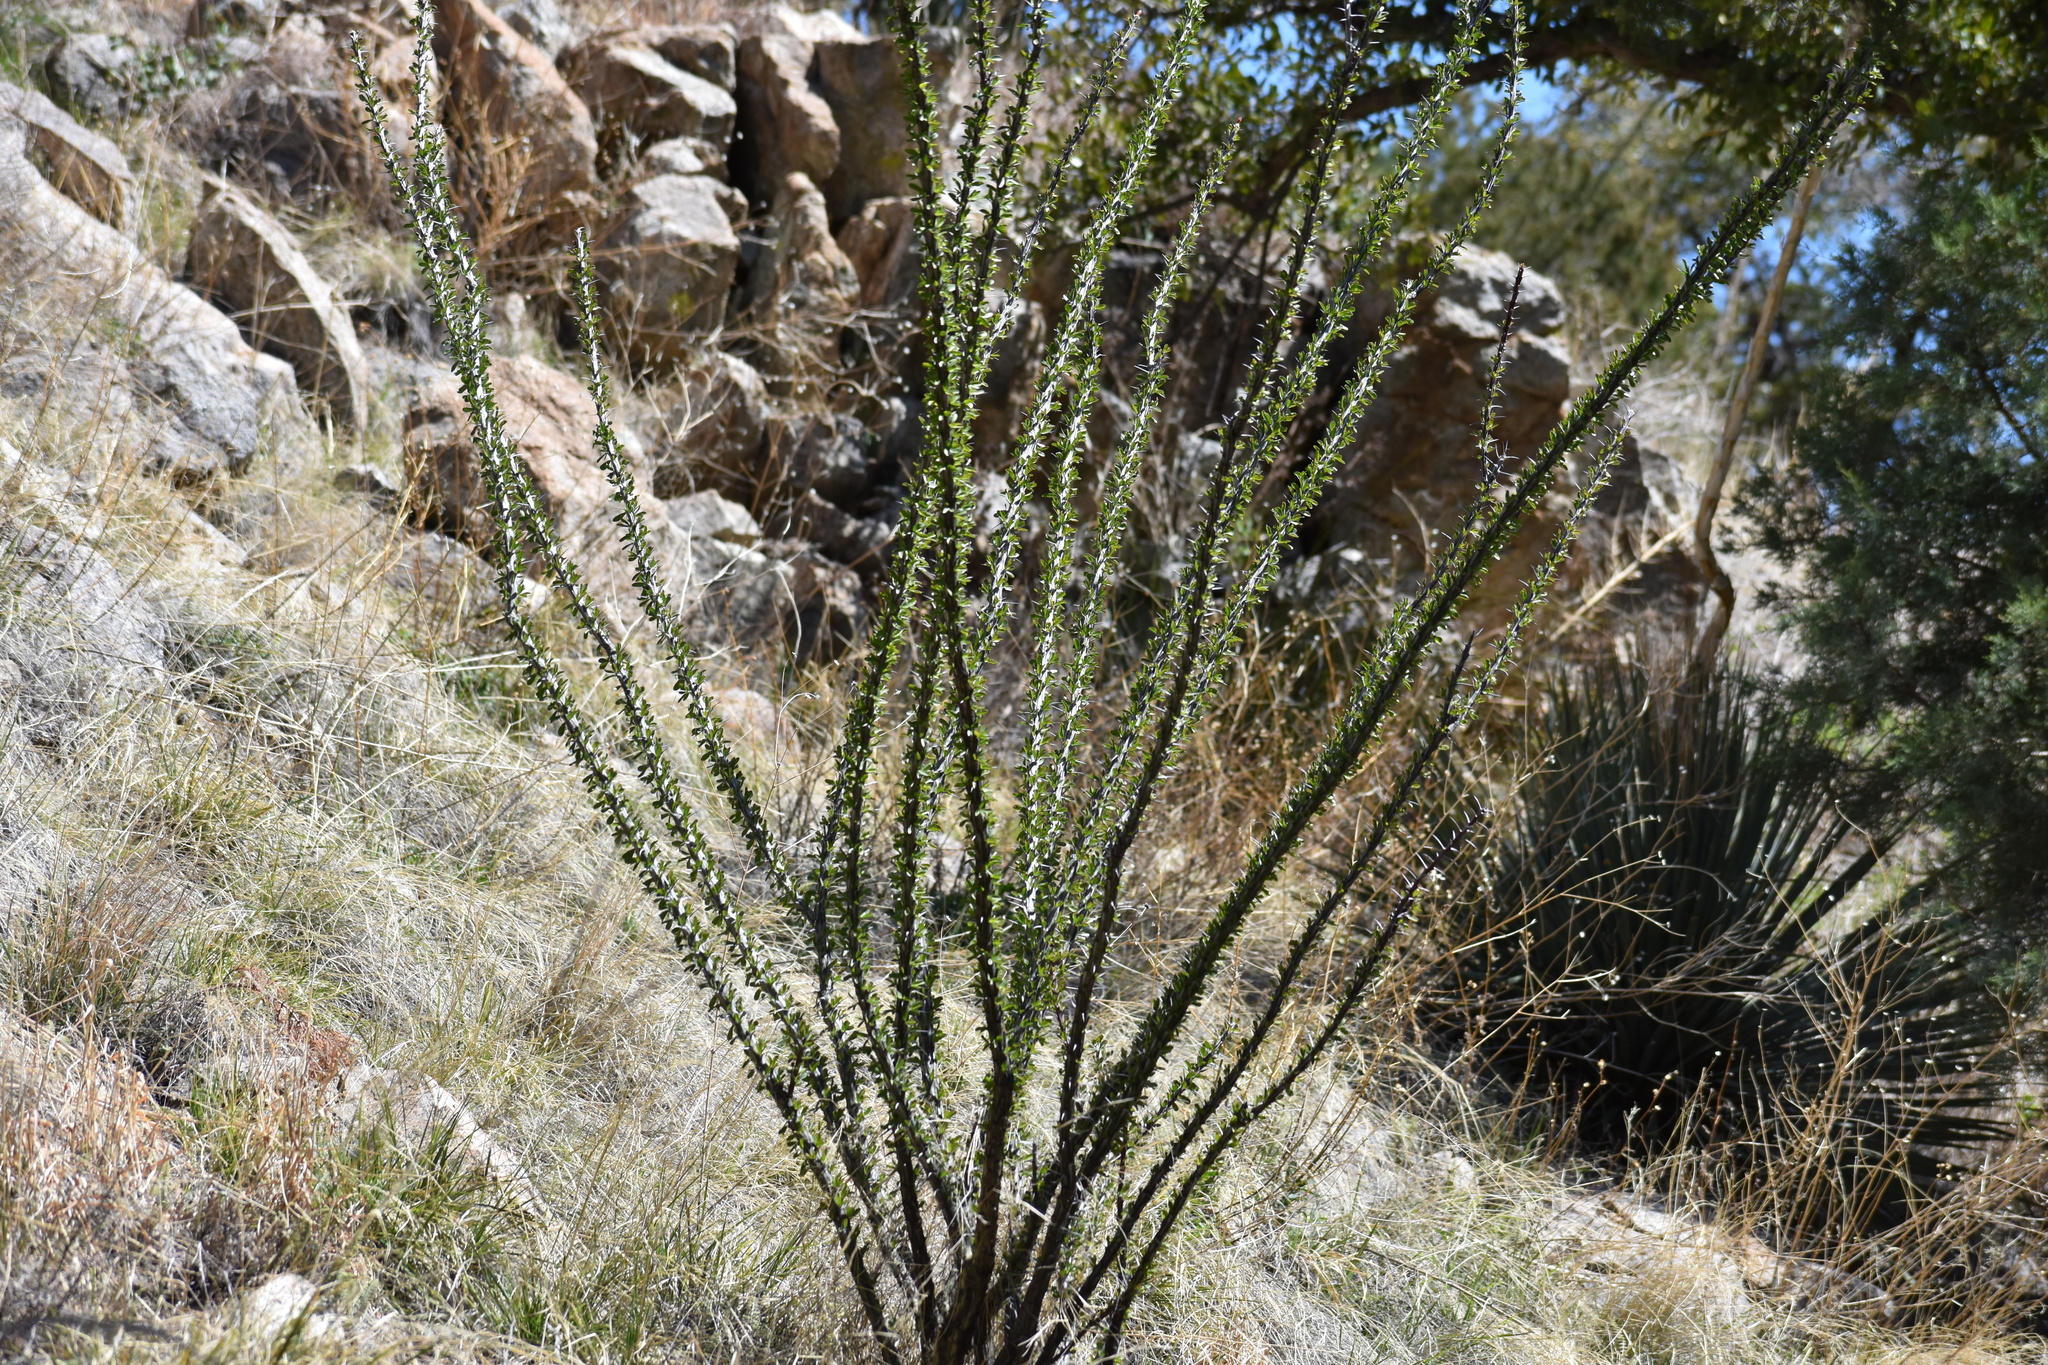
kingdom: Plantae
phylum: Tracheophyta
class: Magnoliopsida
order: Ericales
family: Fouquieriaceae
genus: Fouquieria
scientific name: Fouquieria splendens
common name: Vine-cactus
